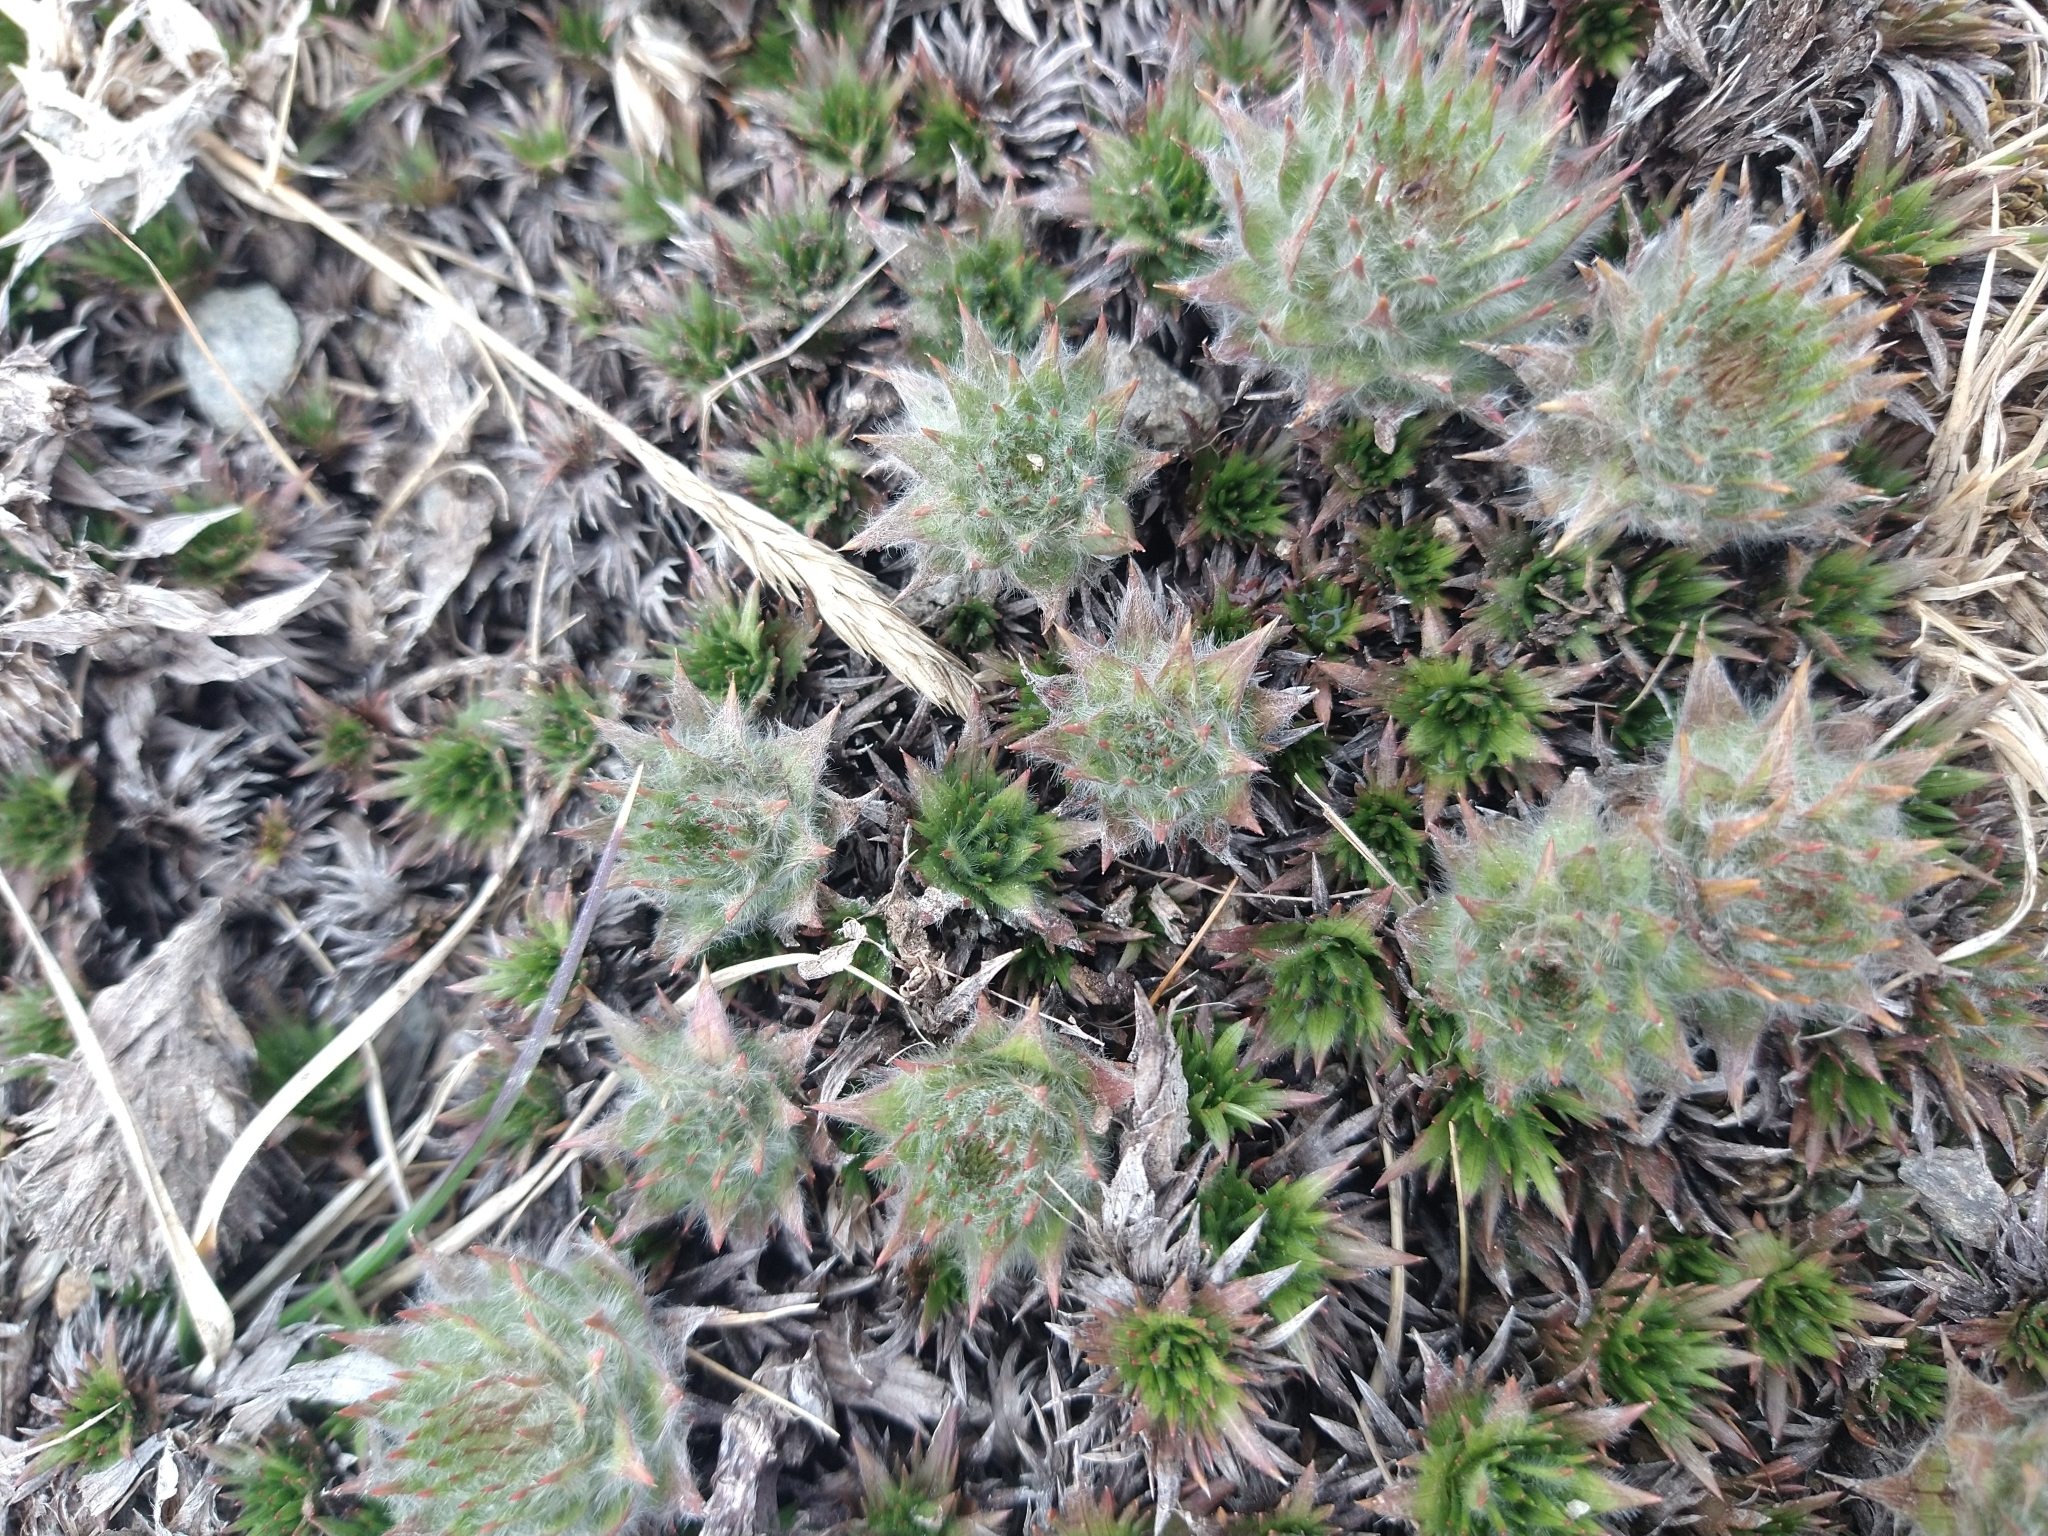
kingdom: Plantae
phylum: Tracheophyta
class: Magnoliopsida
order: Asterales
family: Asteraceae
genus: Nassauvia
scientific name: Nassauvia magellanica
